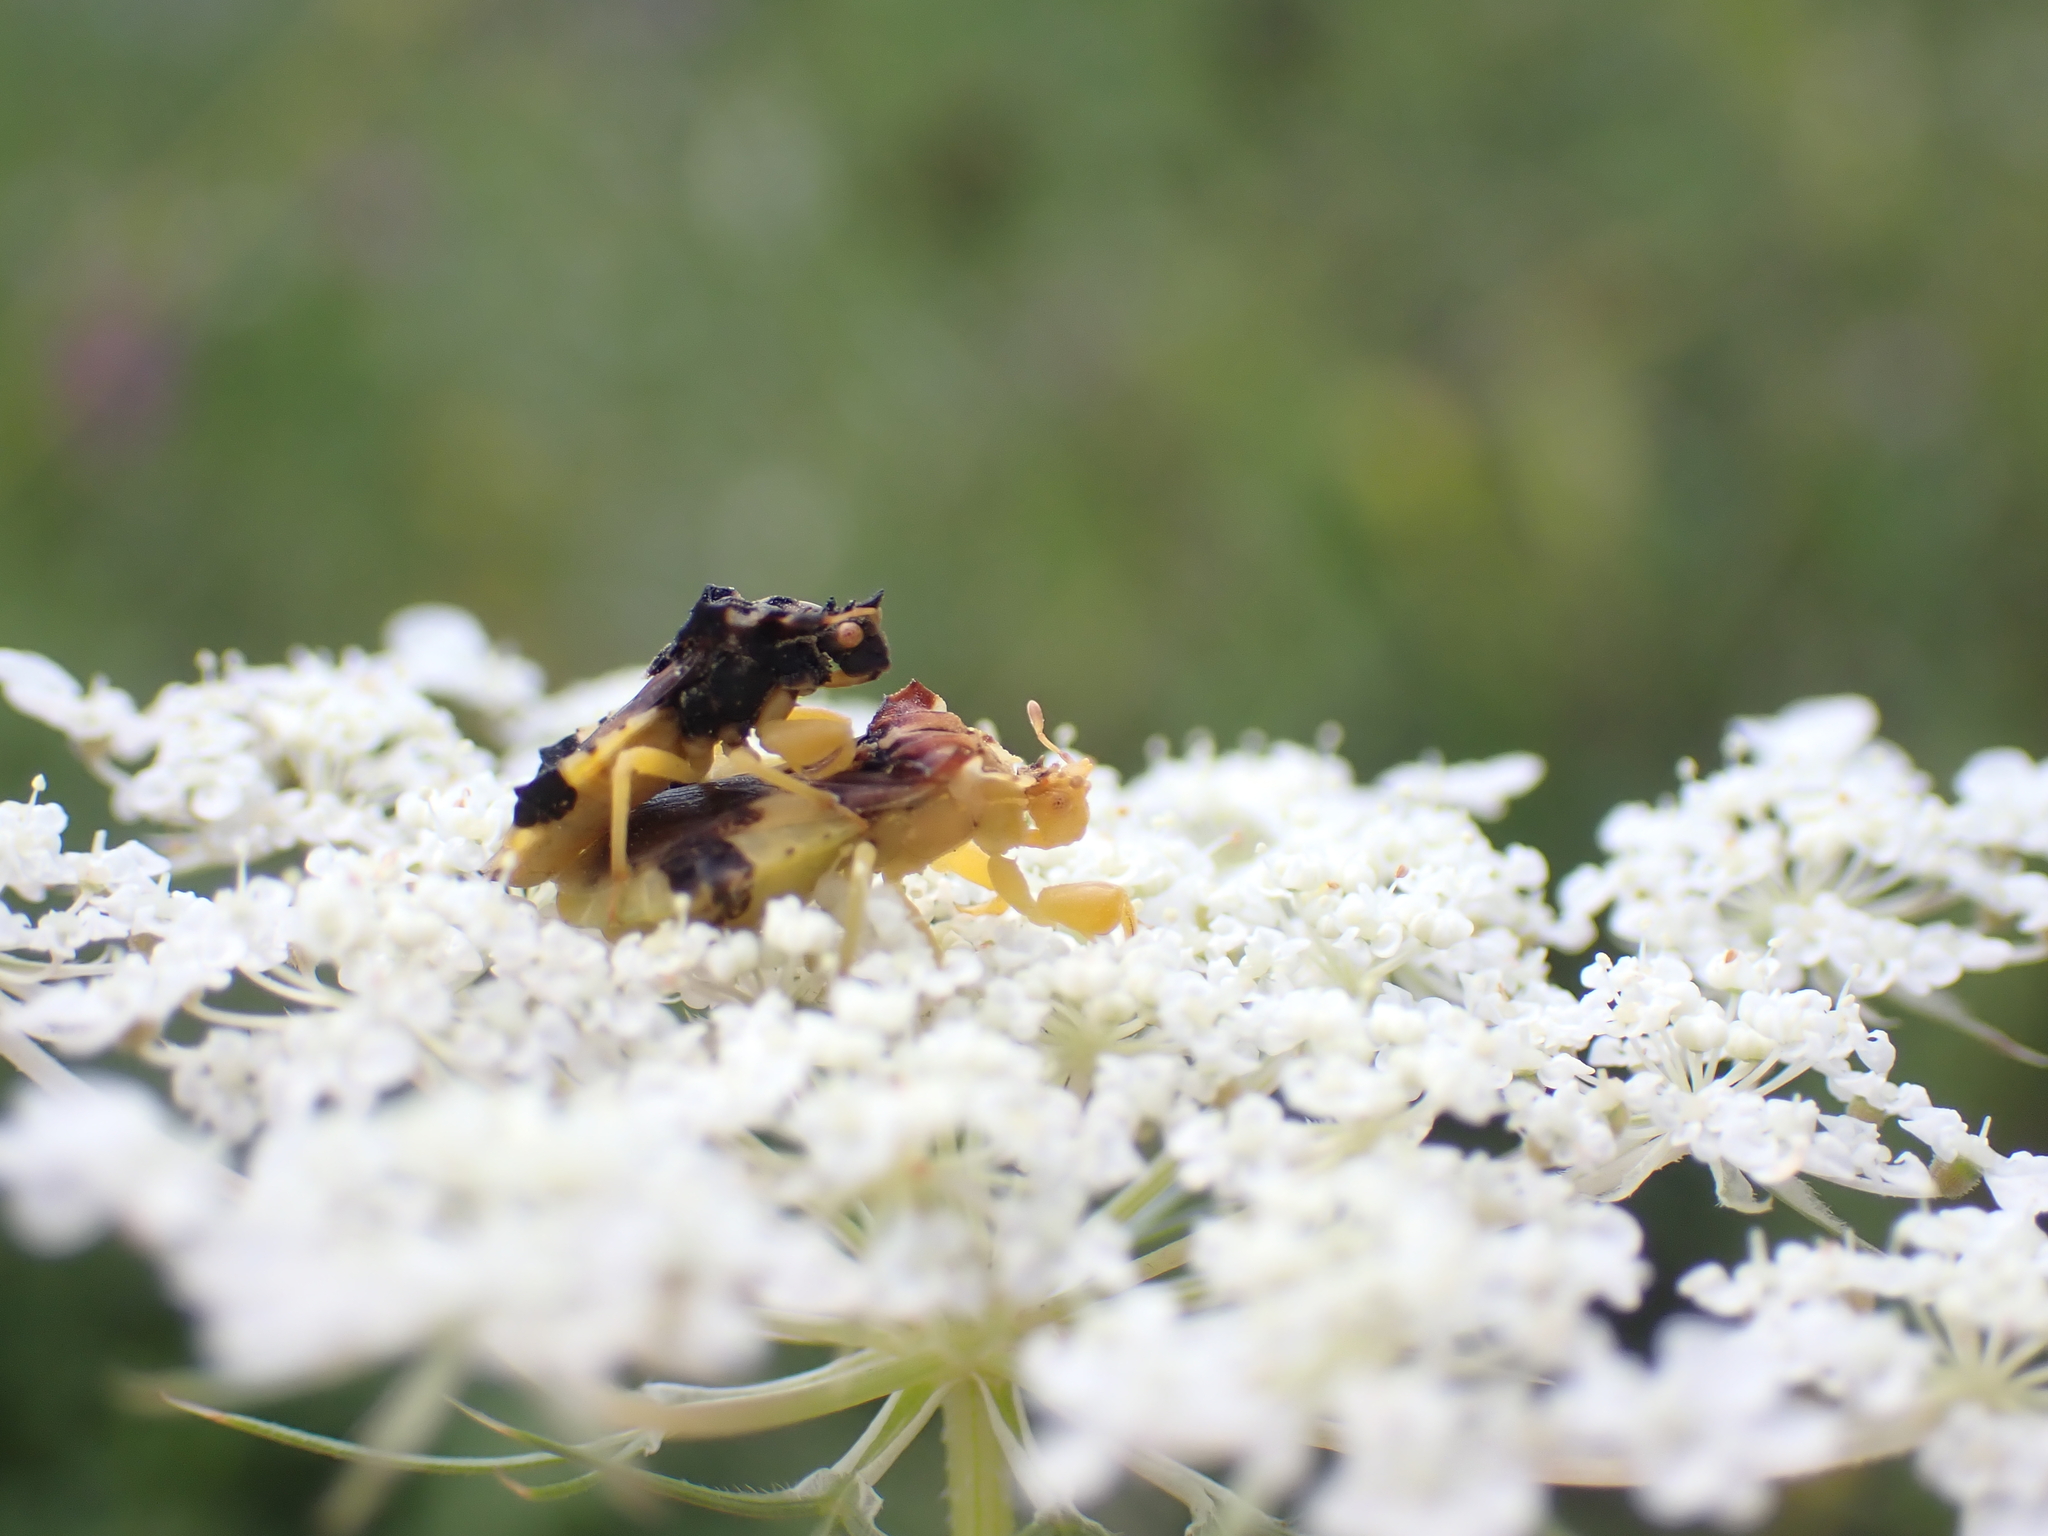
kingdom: Animalia
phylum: Arthropoda
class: Insecta
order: Hemiptera
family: Reduviidae
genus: Phymata
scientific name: Phymata americana
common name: Jagged ambush bug
